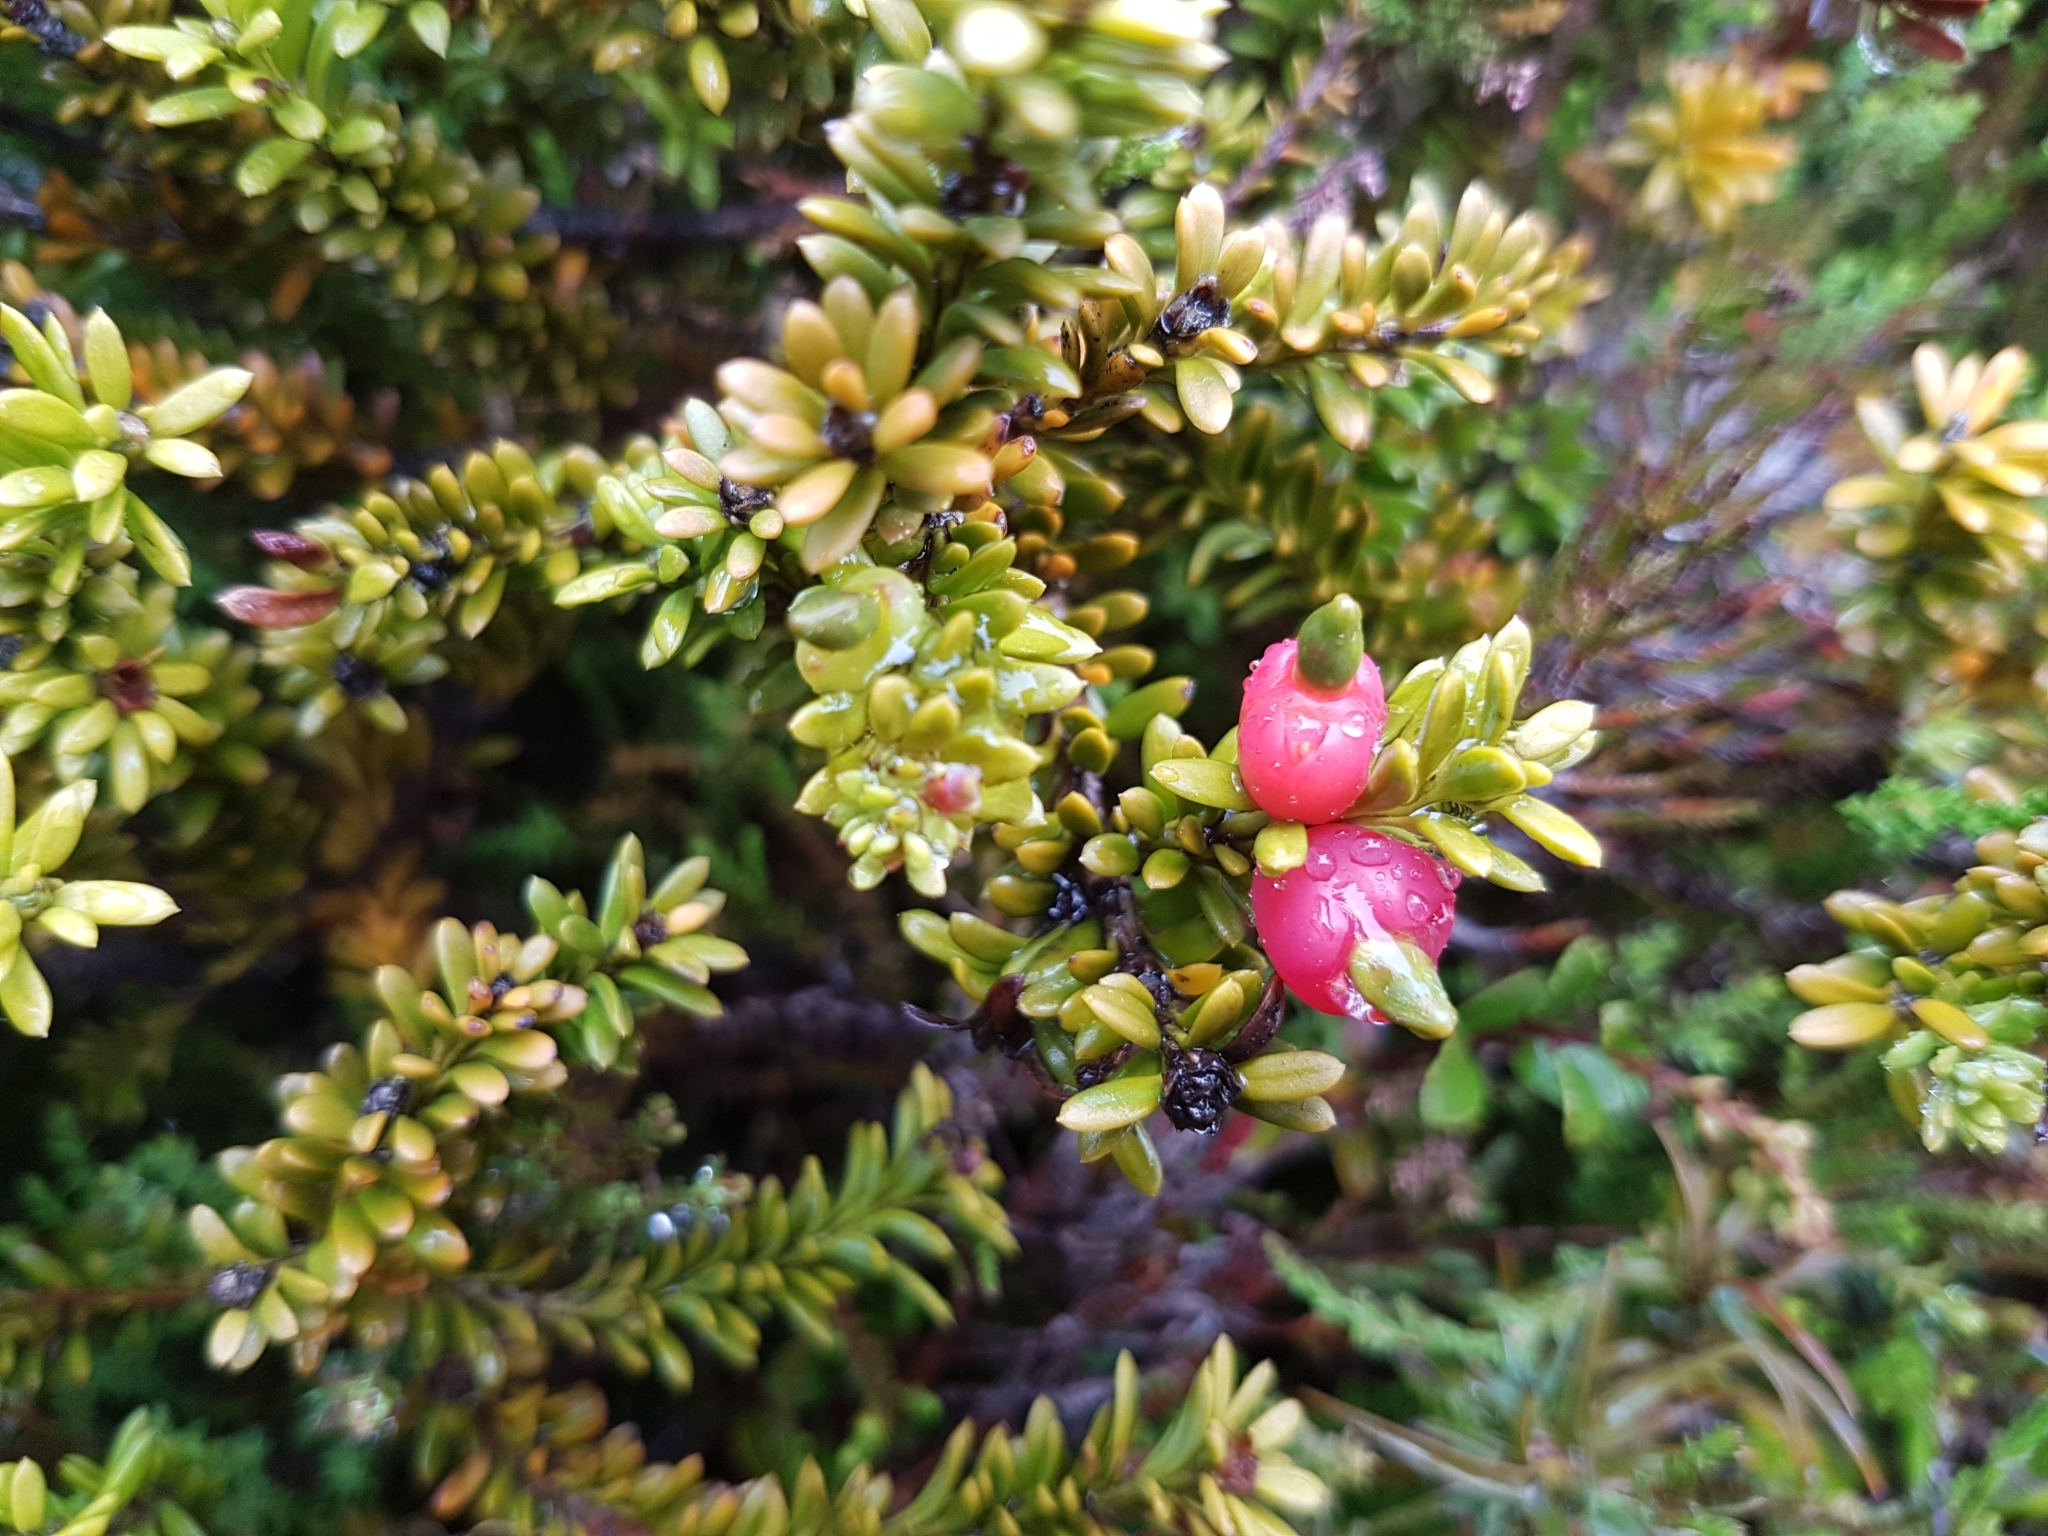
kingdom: Plantae
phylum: Tracheophyta
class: Pinopsida
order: Pinales
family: Podocarpaceae
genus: Podocarpus
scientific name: Podocarpus nivalis
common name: Alpine totara
